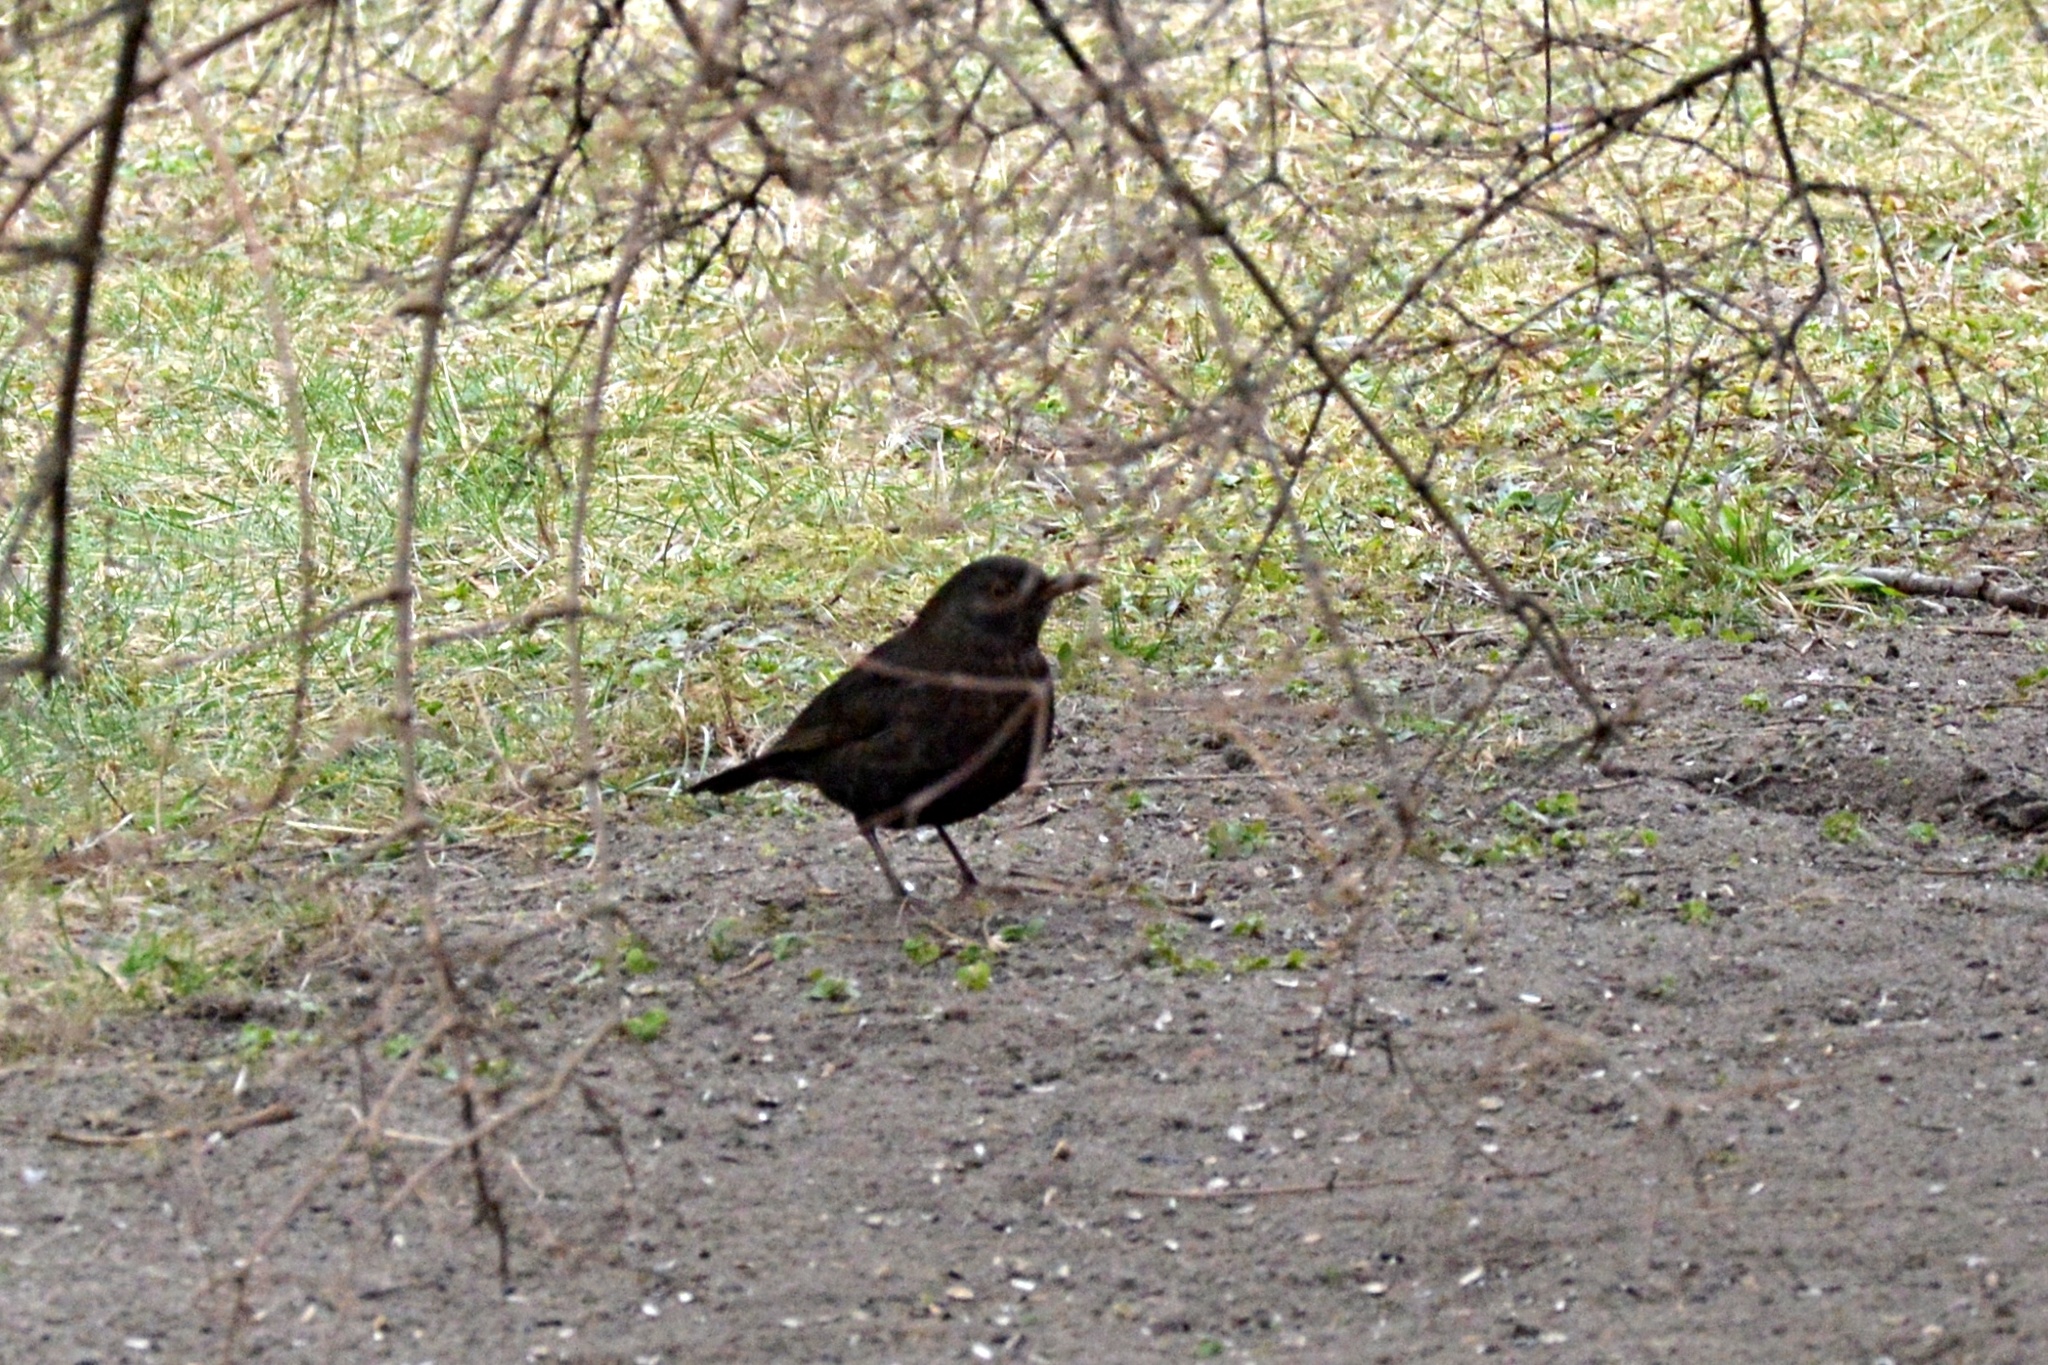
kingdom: Animalia
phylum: Chordata
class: Aves
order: Passeriformes
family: Turdidae
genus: Turdus
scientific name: Turdus merula
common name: Common blackbird
